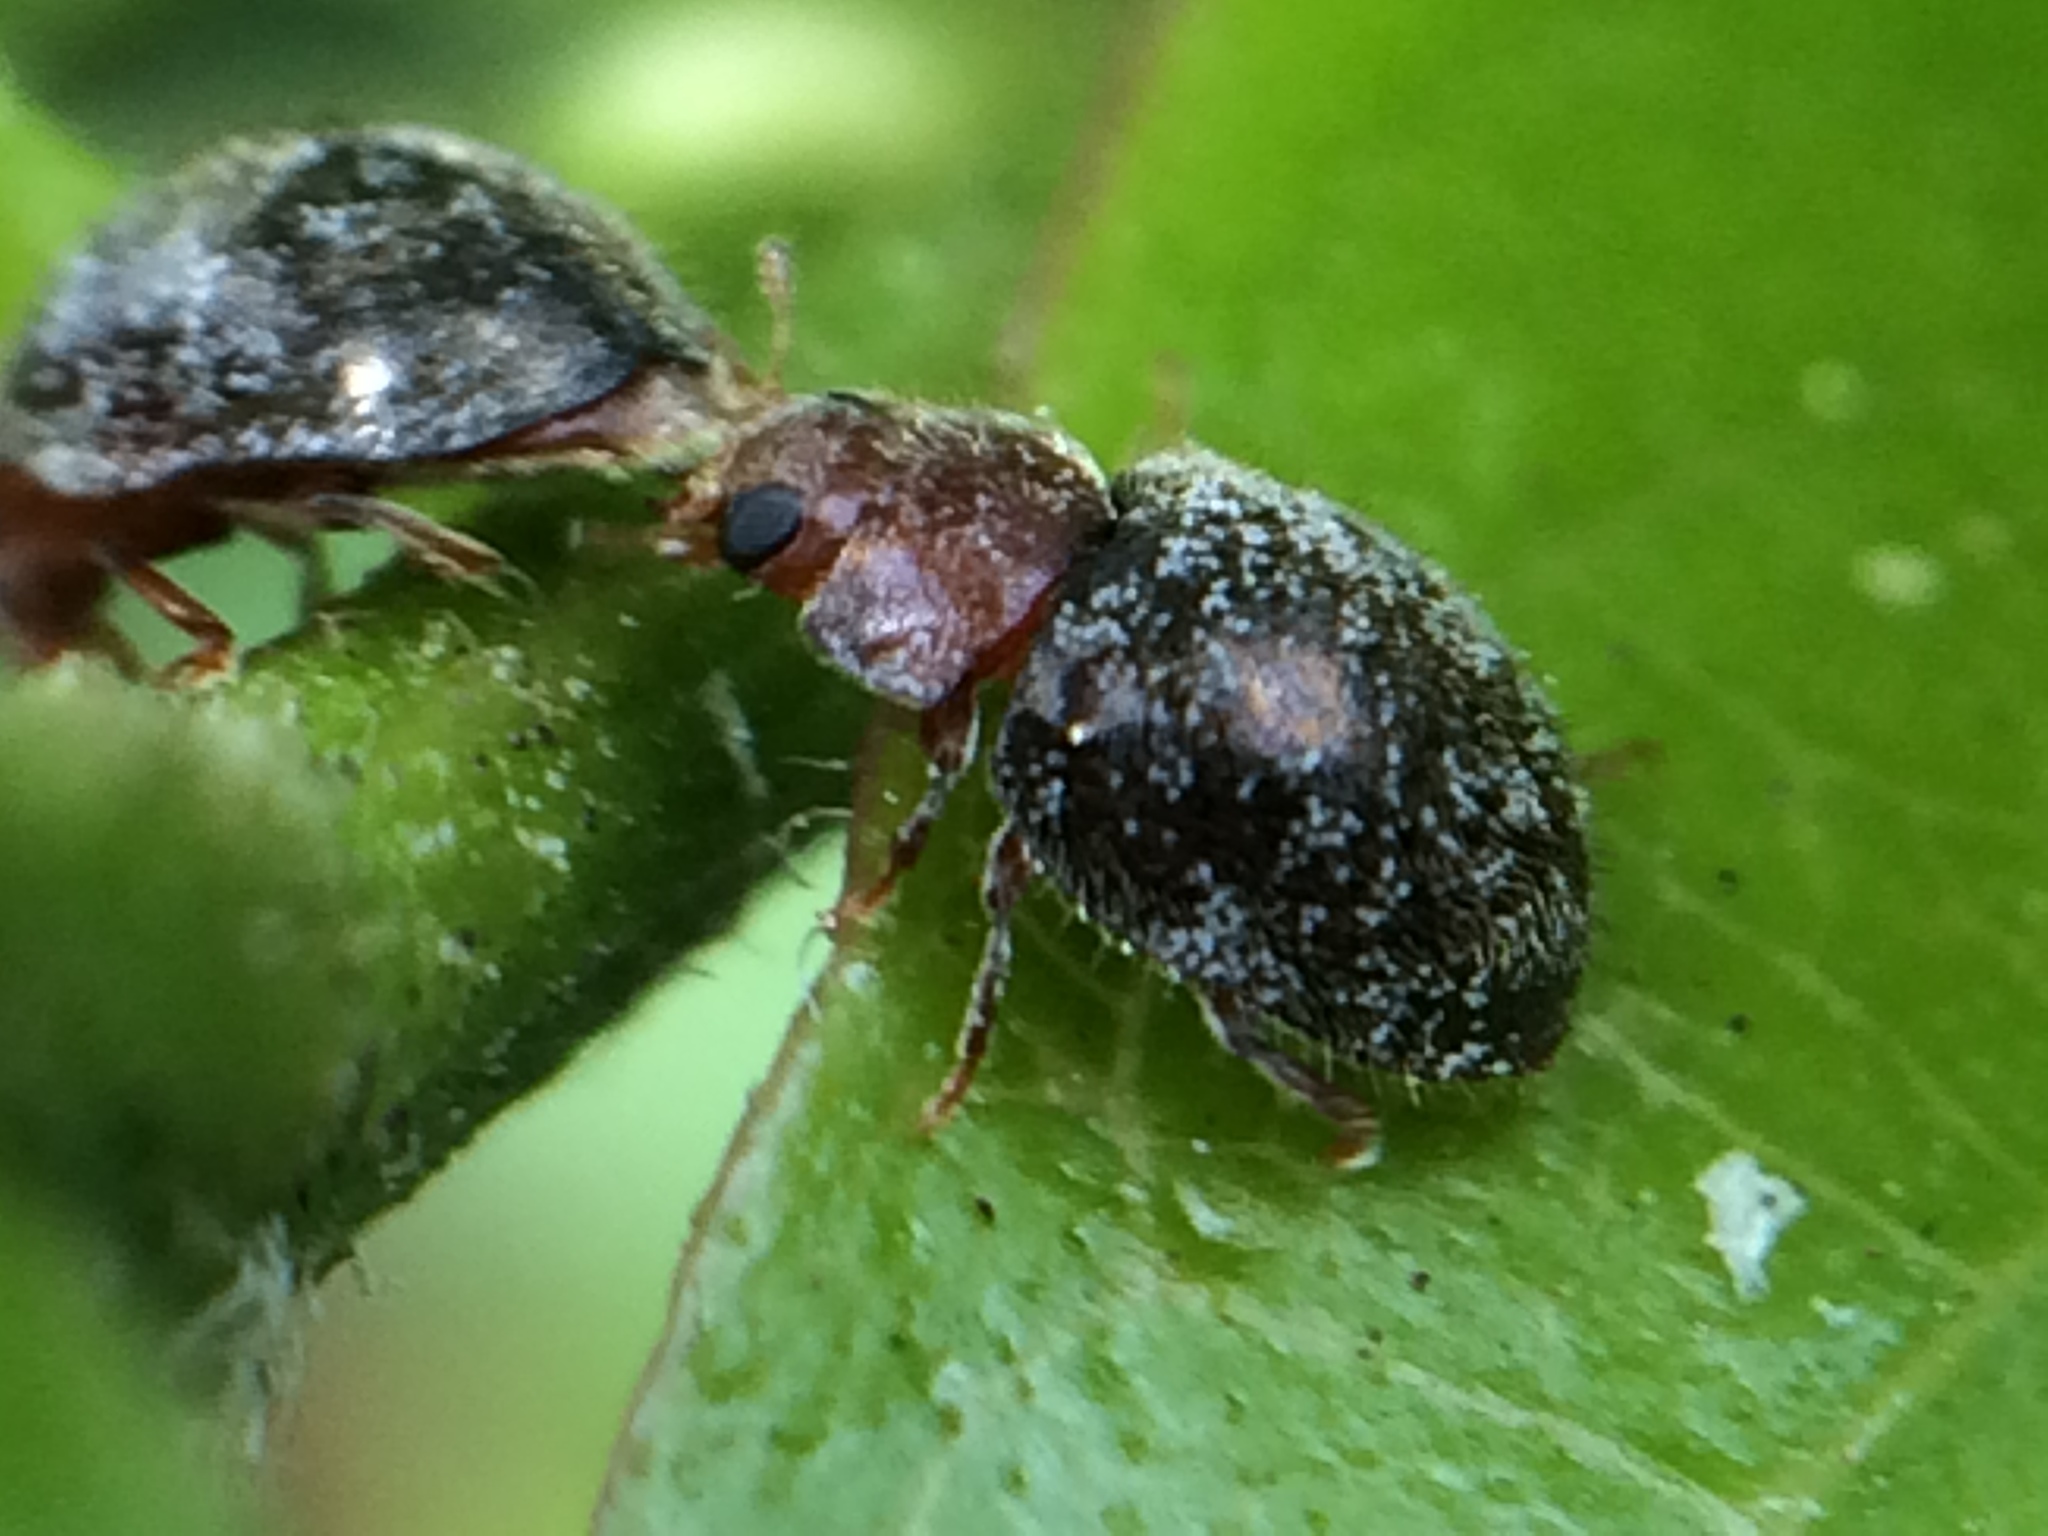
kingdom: Animalia
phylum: Arthropoda
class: Insecta
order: Coleoptera
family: Coccinellidae
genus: Rhyzobius
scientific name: Rhyzobius lophanthae
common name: Scale-eating ladybird beetle
